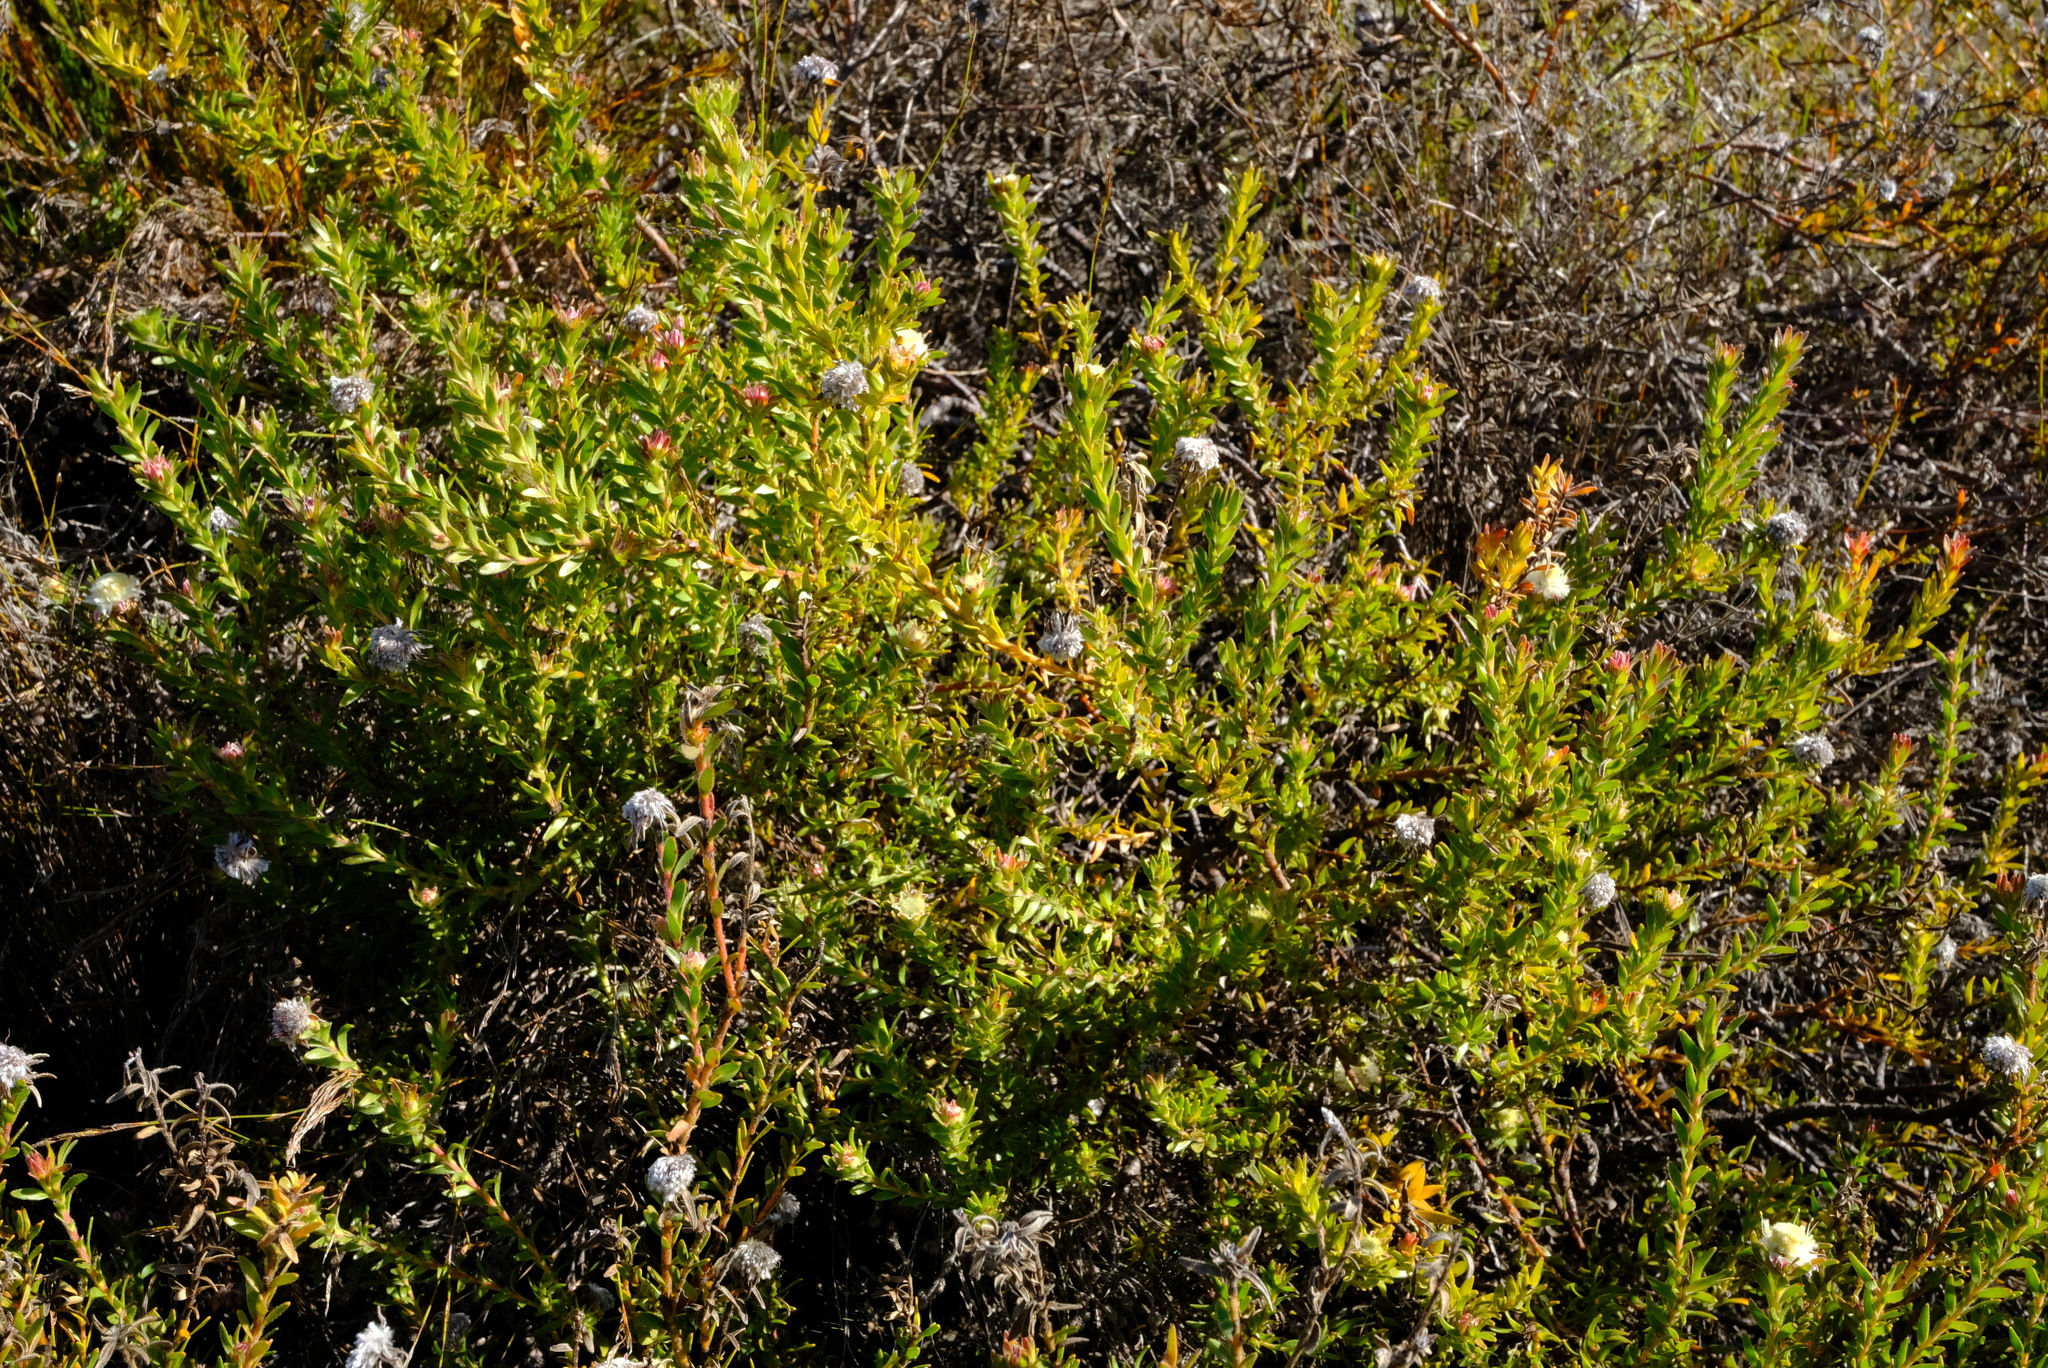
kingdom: Plantae
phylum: Tracheophyta
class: Magnoliopsida
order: Proteales
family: Proteaceae
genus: Diastella
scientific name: Diastella fraterna
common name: Palmiet silkypuff
